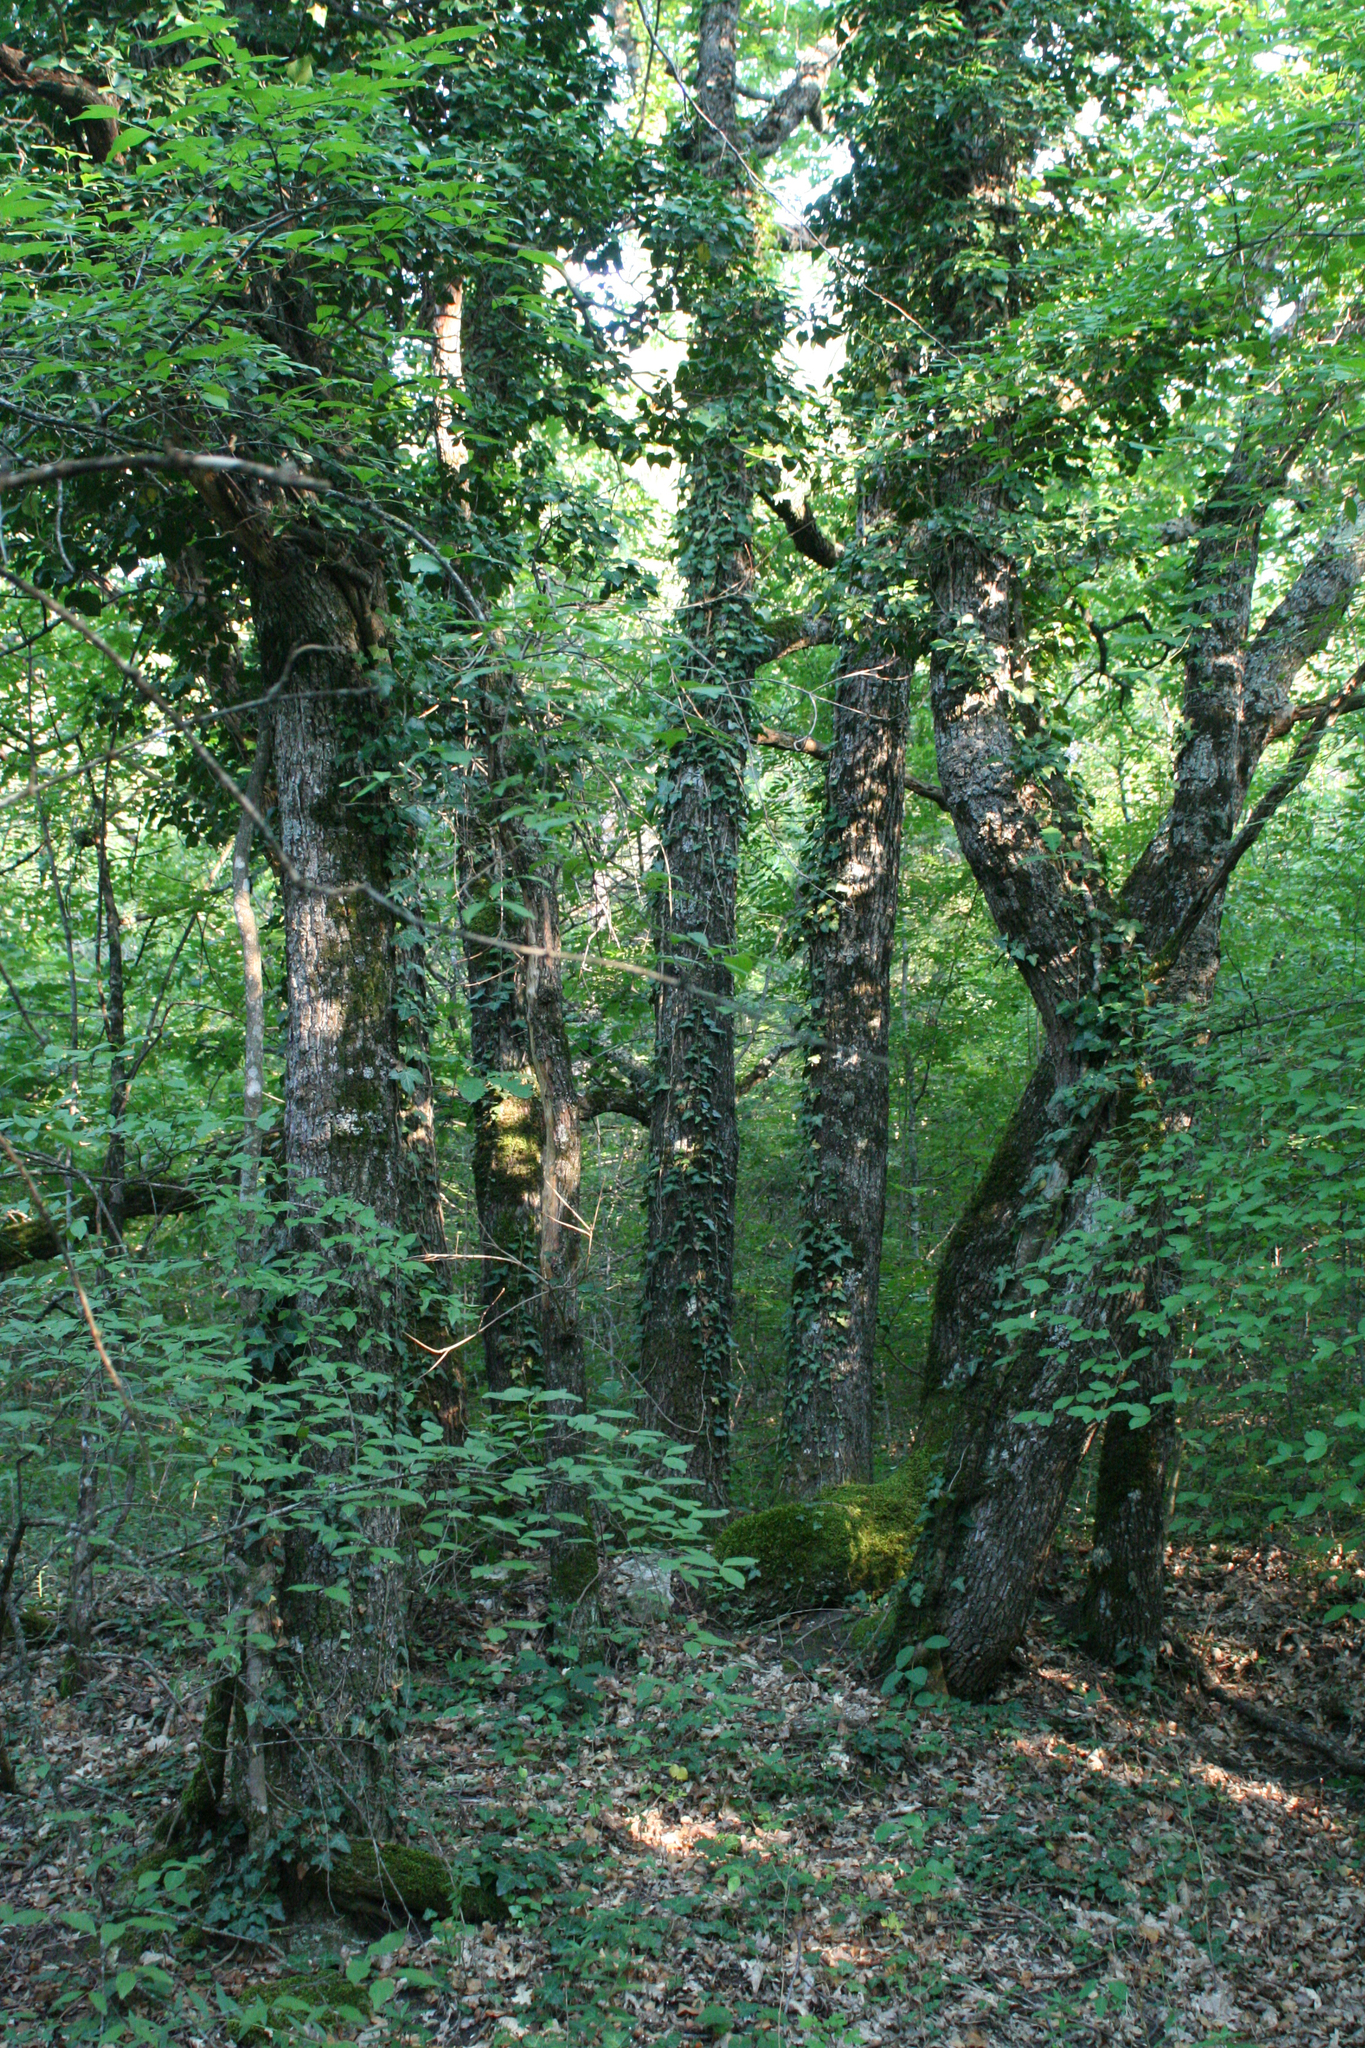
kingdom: Plantae
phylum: Tracheophyta
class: Magnoliopsida
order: Apiales
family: Araliaceae
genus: Hedera
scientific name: Hedera helix
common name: Ivy
